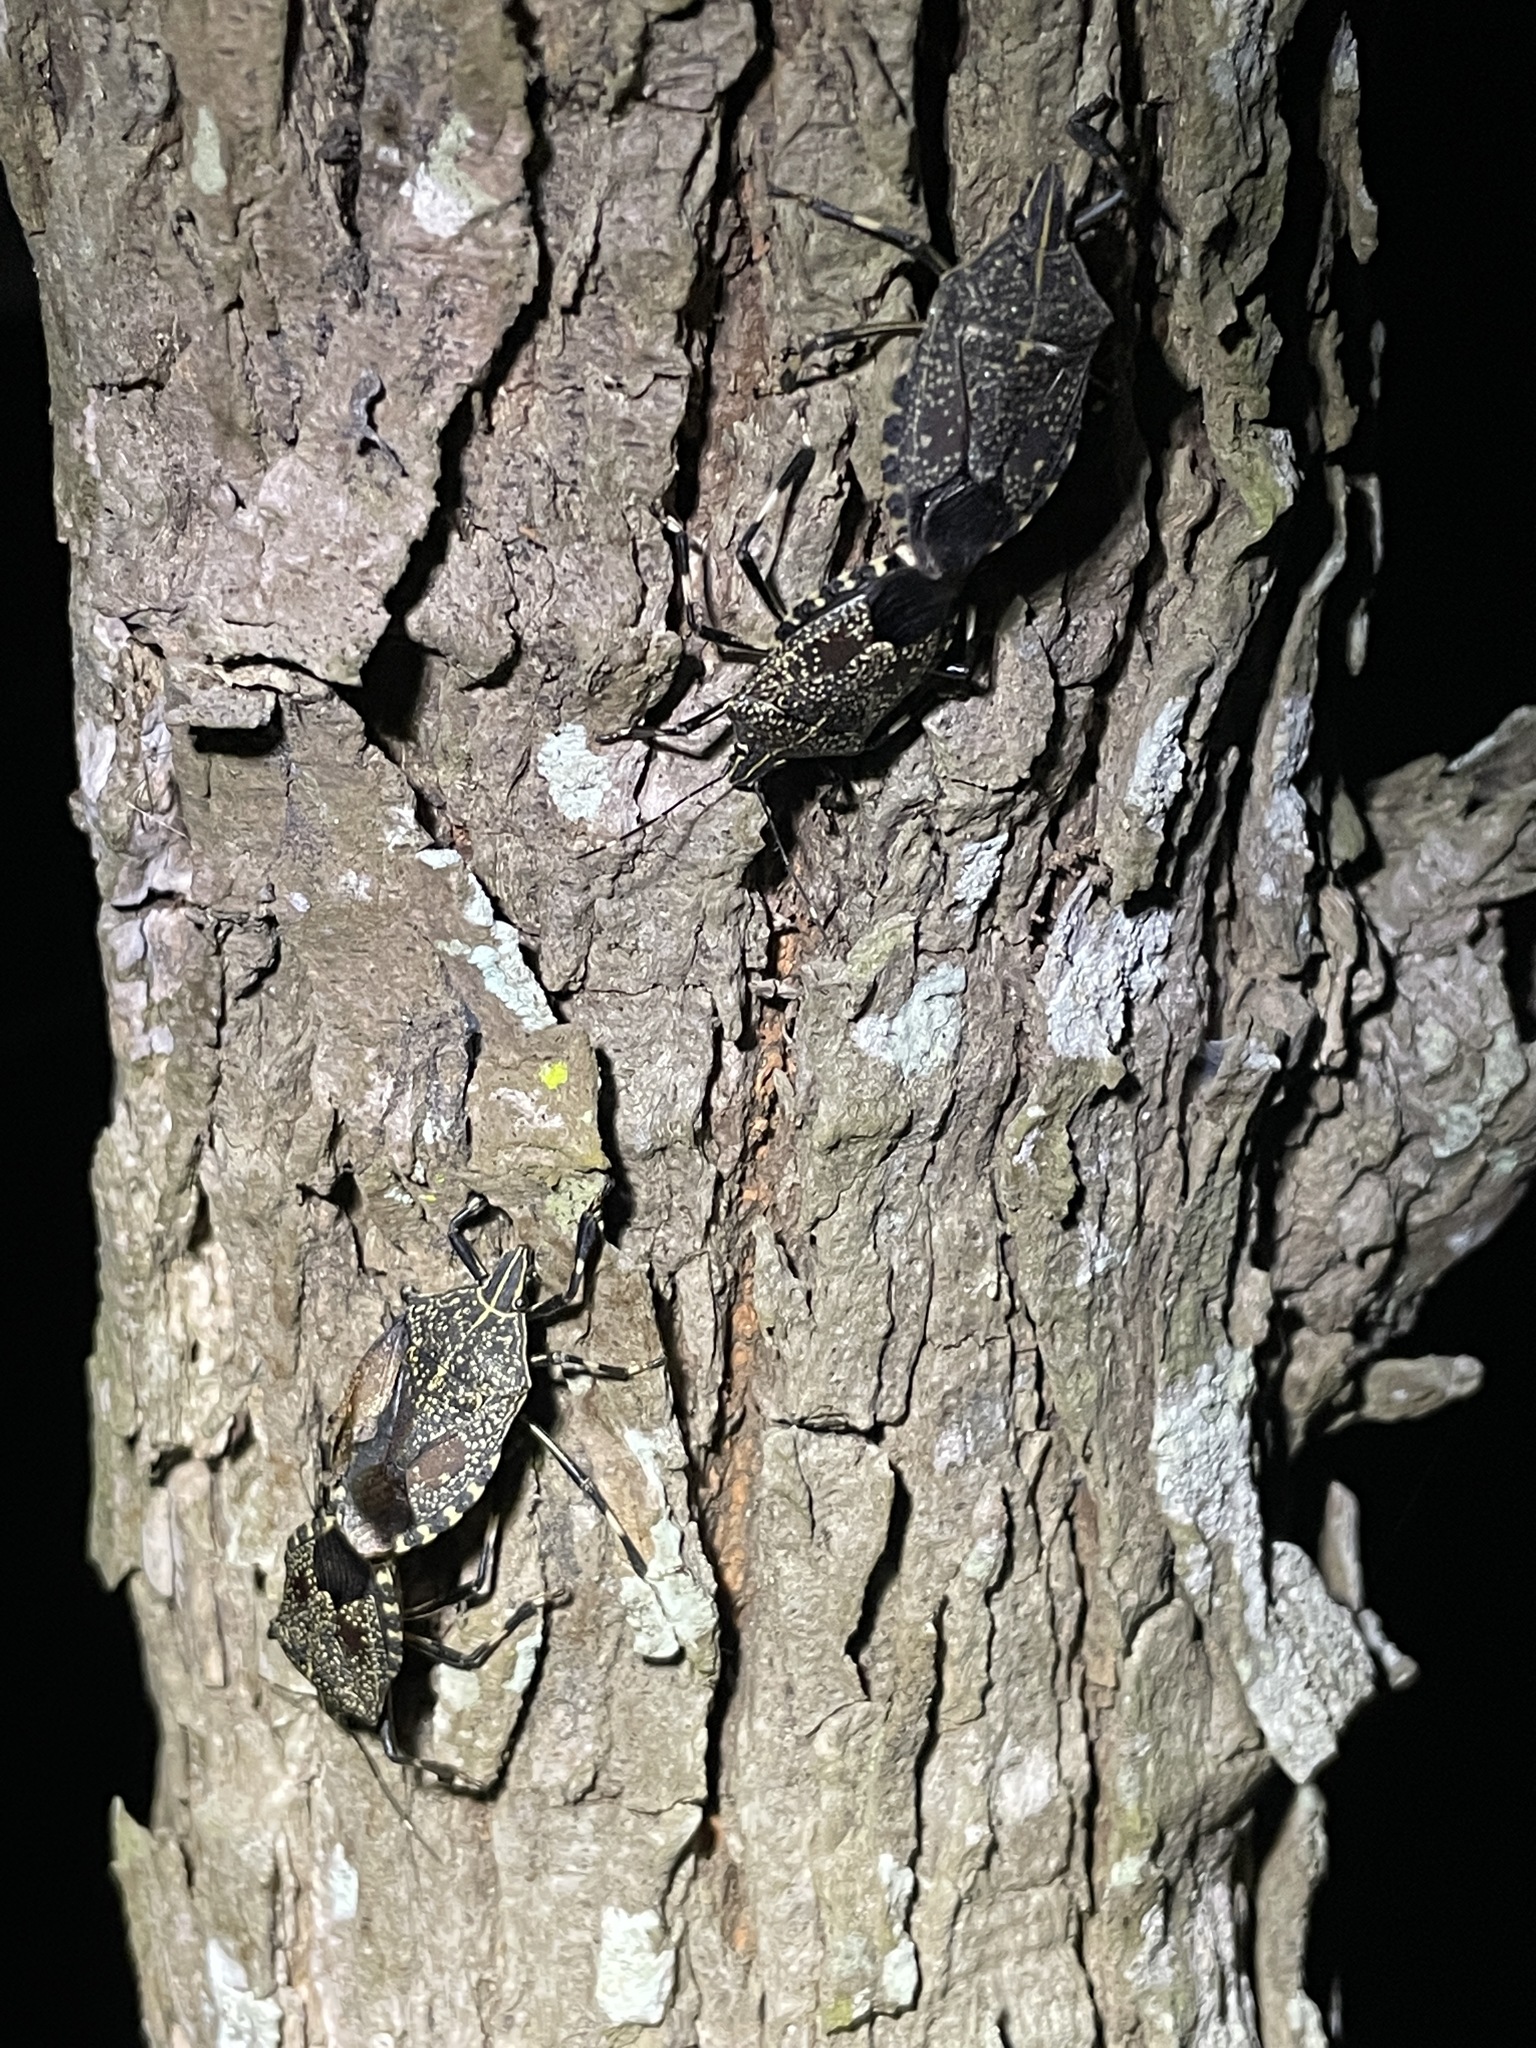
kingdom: Animalia
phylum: Arthropoda
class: Insecta
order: Hemiptera
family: Pentatomidae
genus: Erthesina
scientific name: Erthesina fullo
